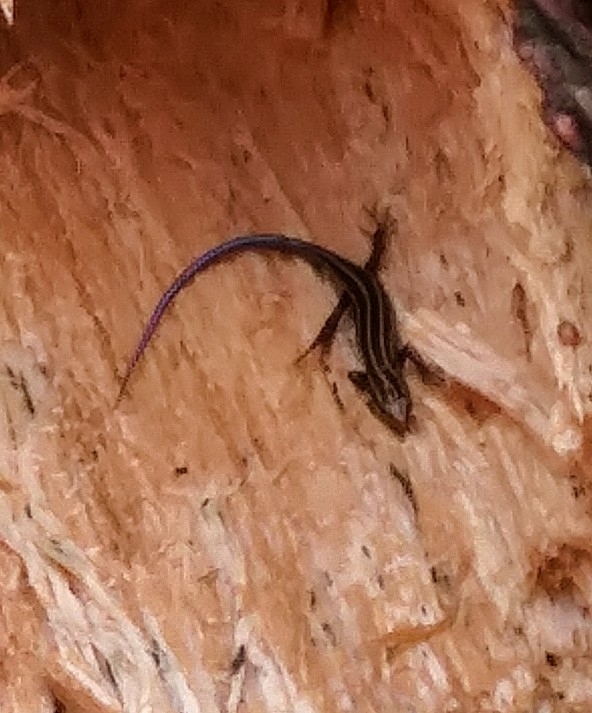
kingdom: Animalia
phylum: Chordata
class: Squamata
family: Scincidae
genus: Plestiodon
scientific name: Plestiodon fasciatus
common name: Five-lined skink
